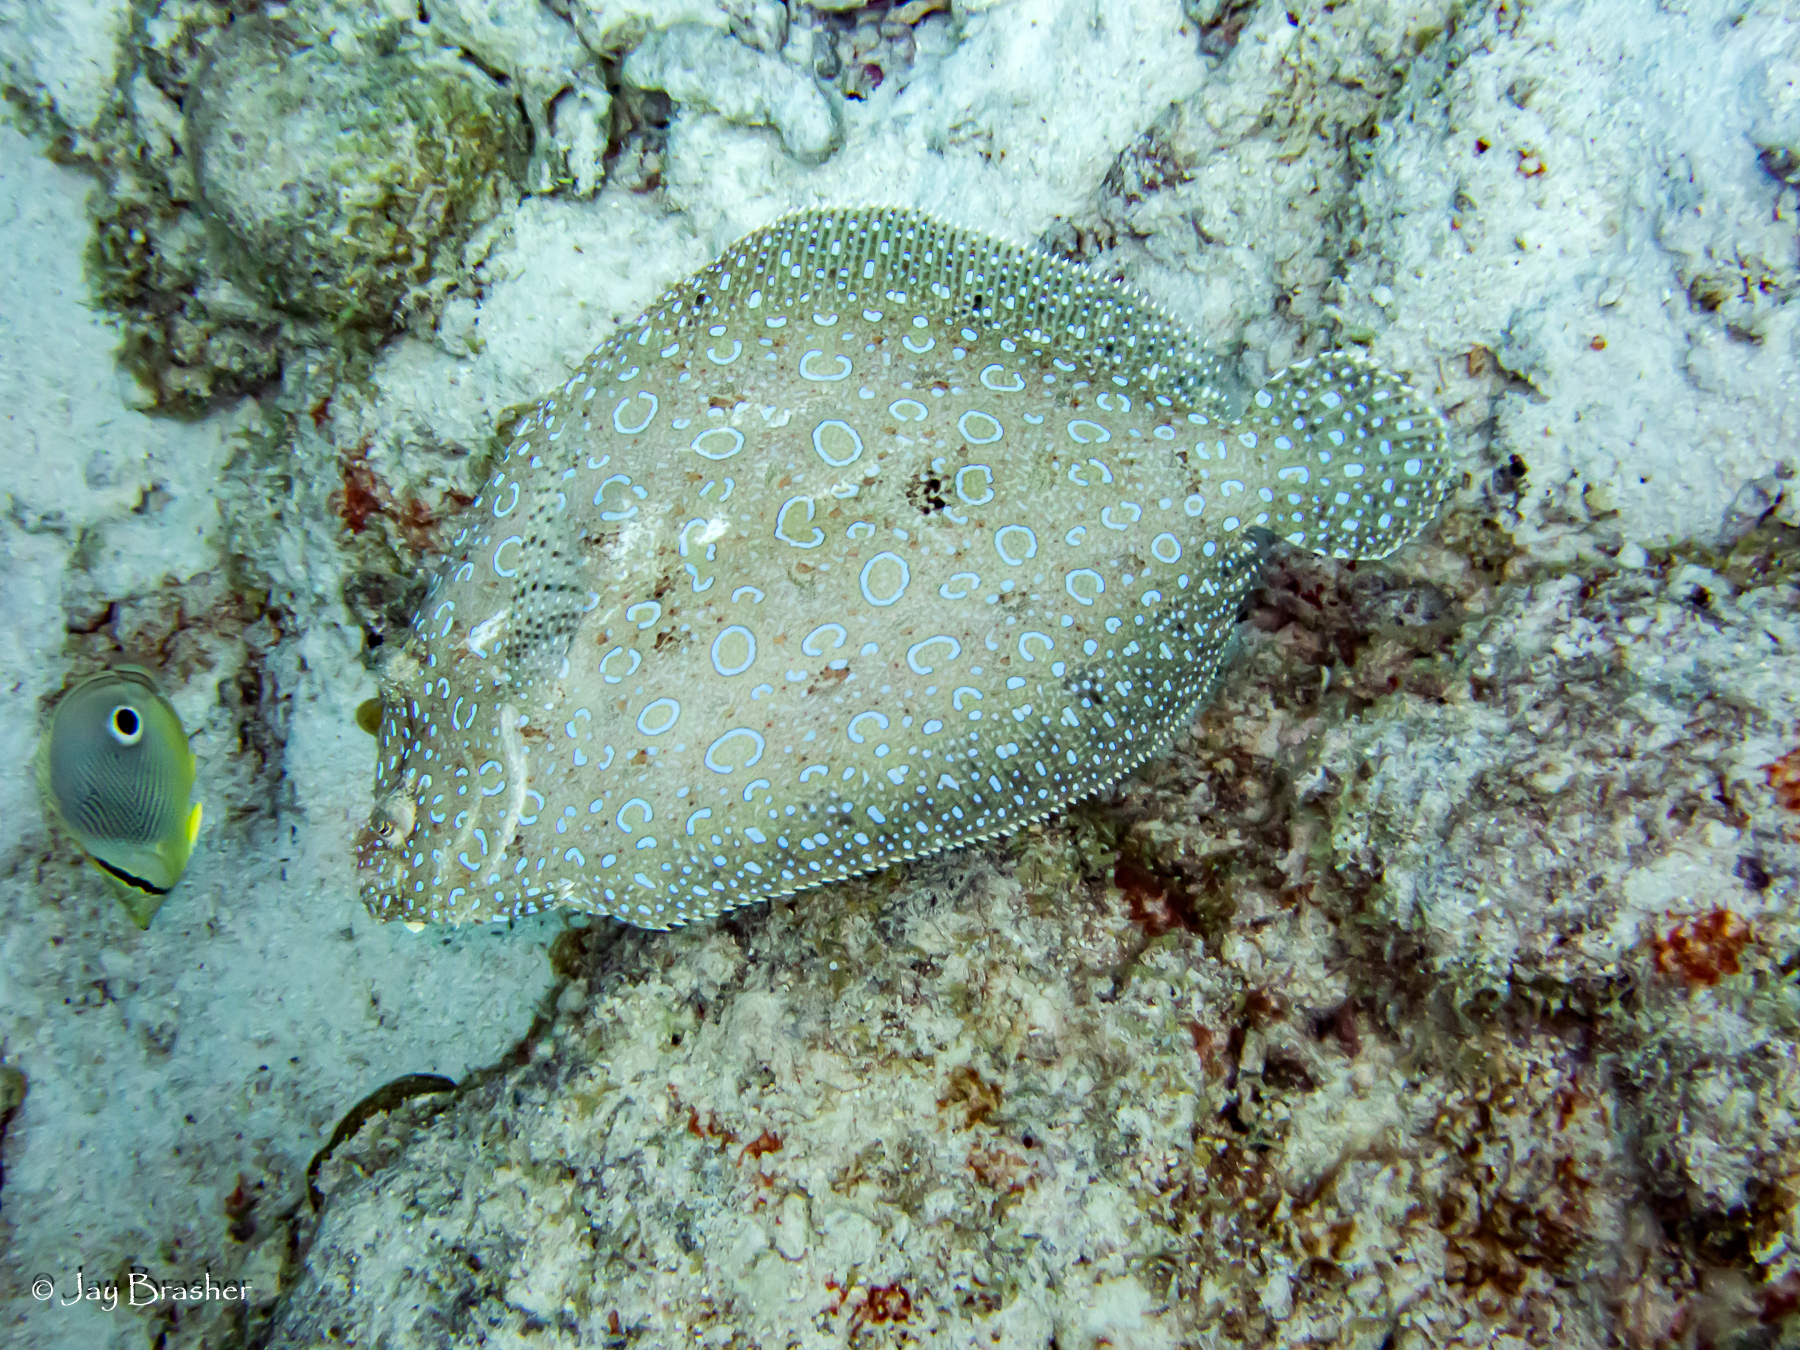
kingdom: Animalia
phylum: Chordata
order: Pleuronectiformes
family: Bothidae
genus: Bothus
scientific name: Bothus lunatus
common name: Peacock flounder
